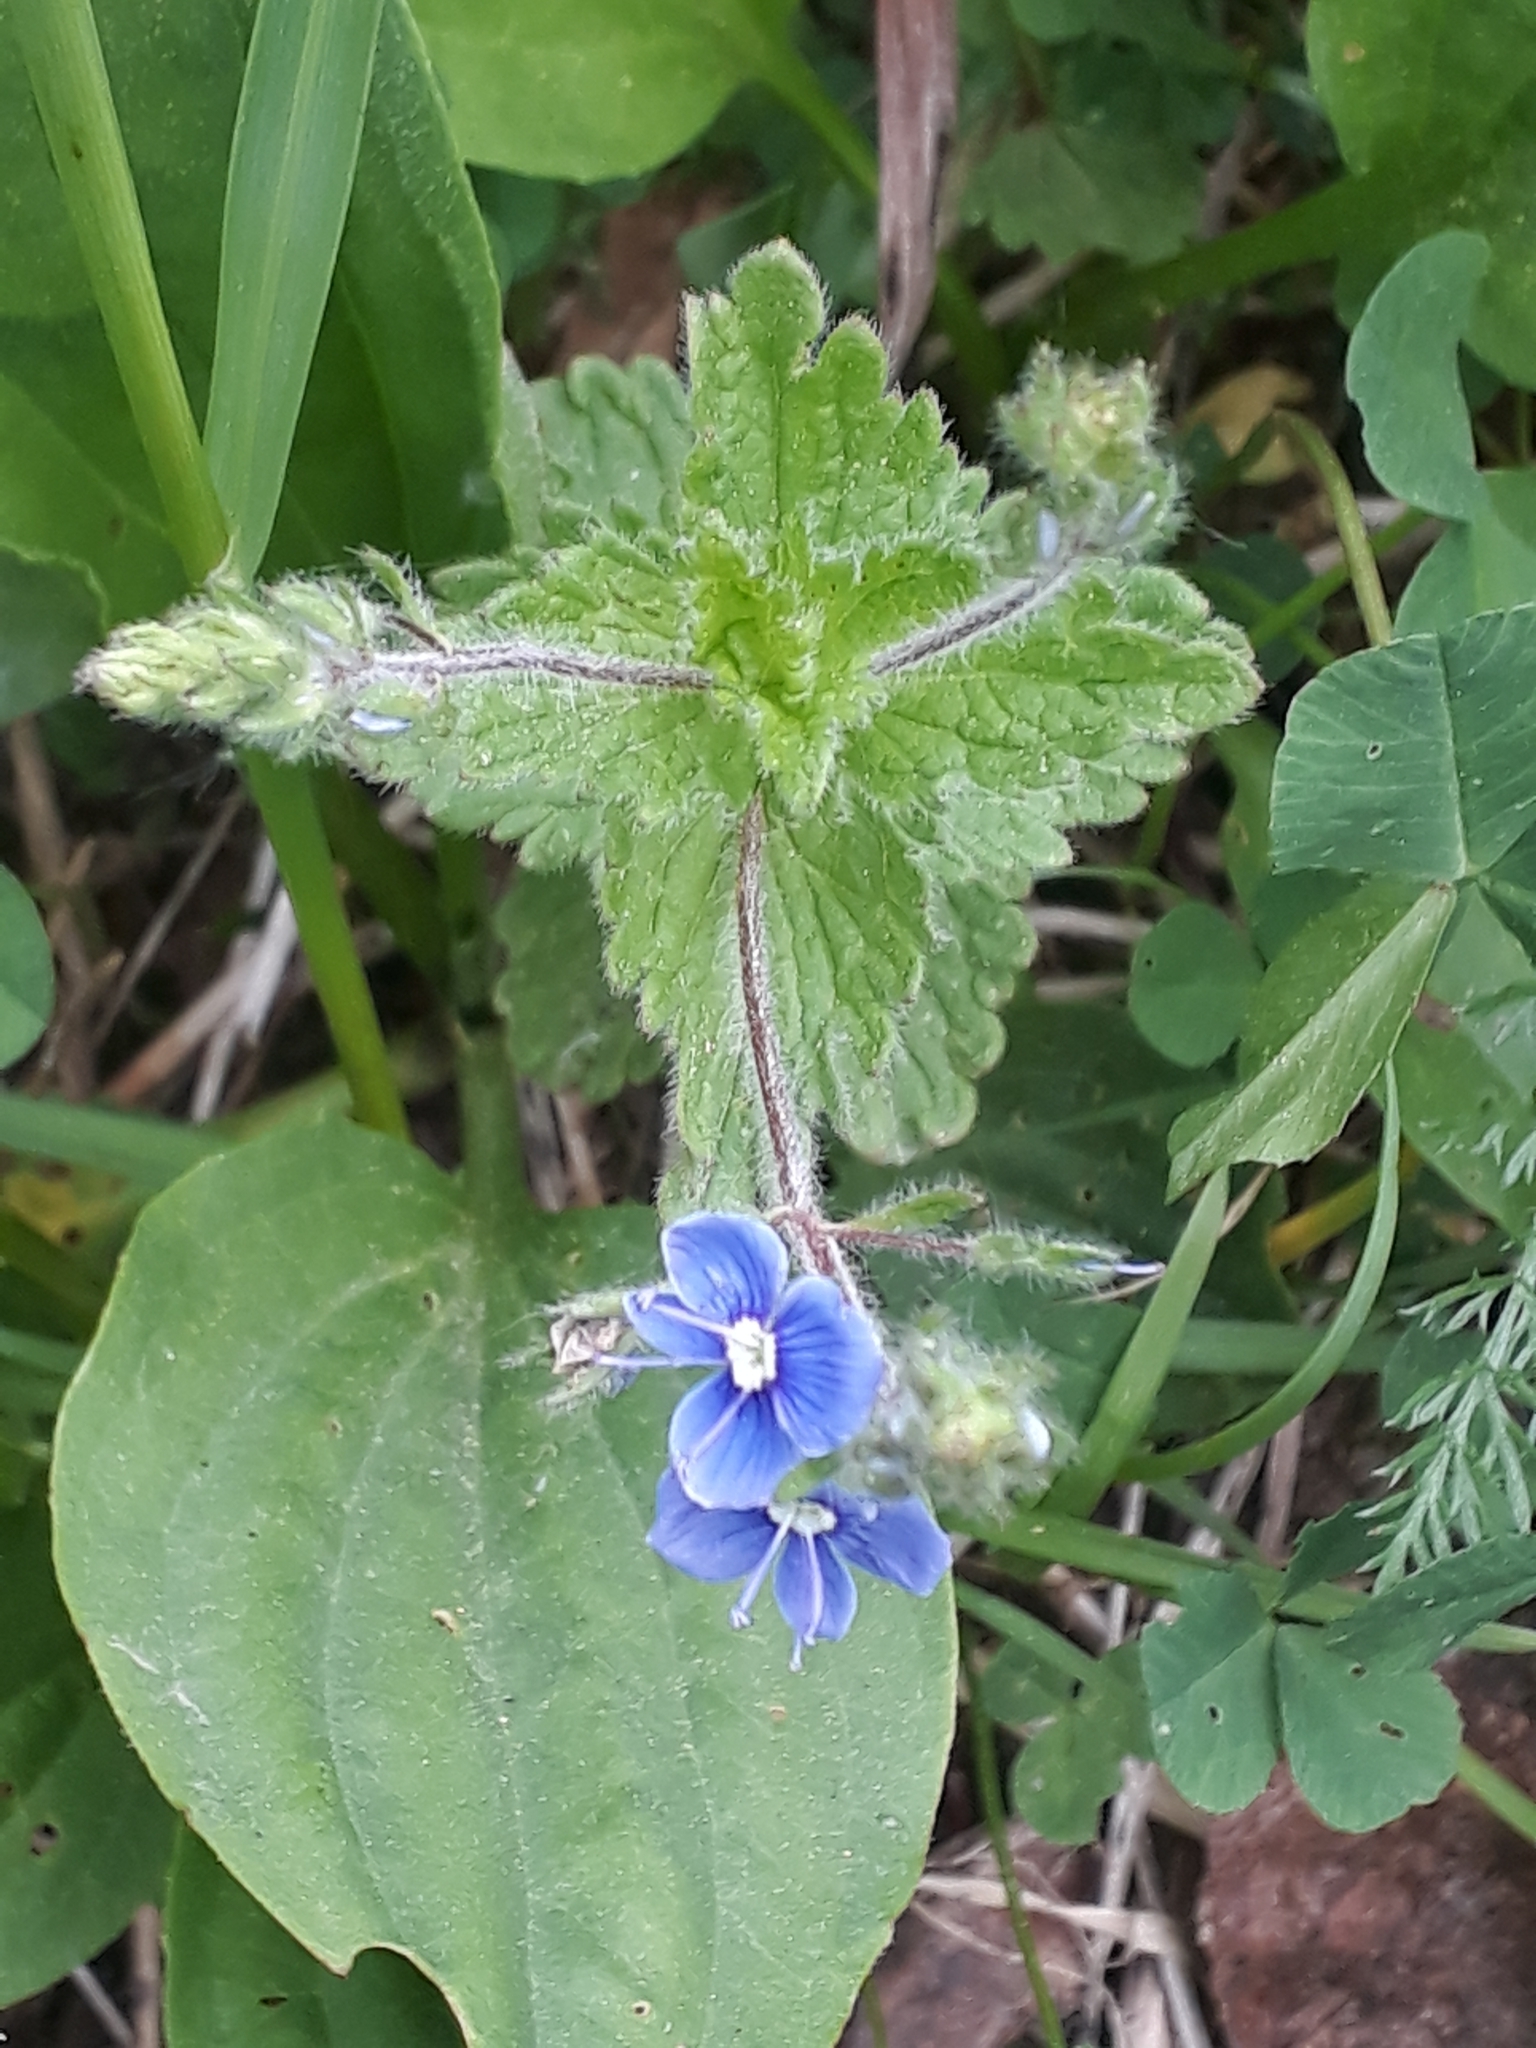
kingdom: Plantae
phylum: Tracheophyta
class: Magnoliopsida
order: Lamiales
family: Plantaginaceae
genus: Veronica
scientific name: Veronica chamaedrys
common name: Germander speedwell
